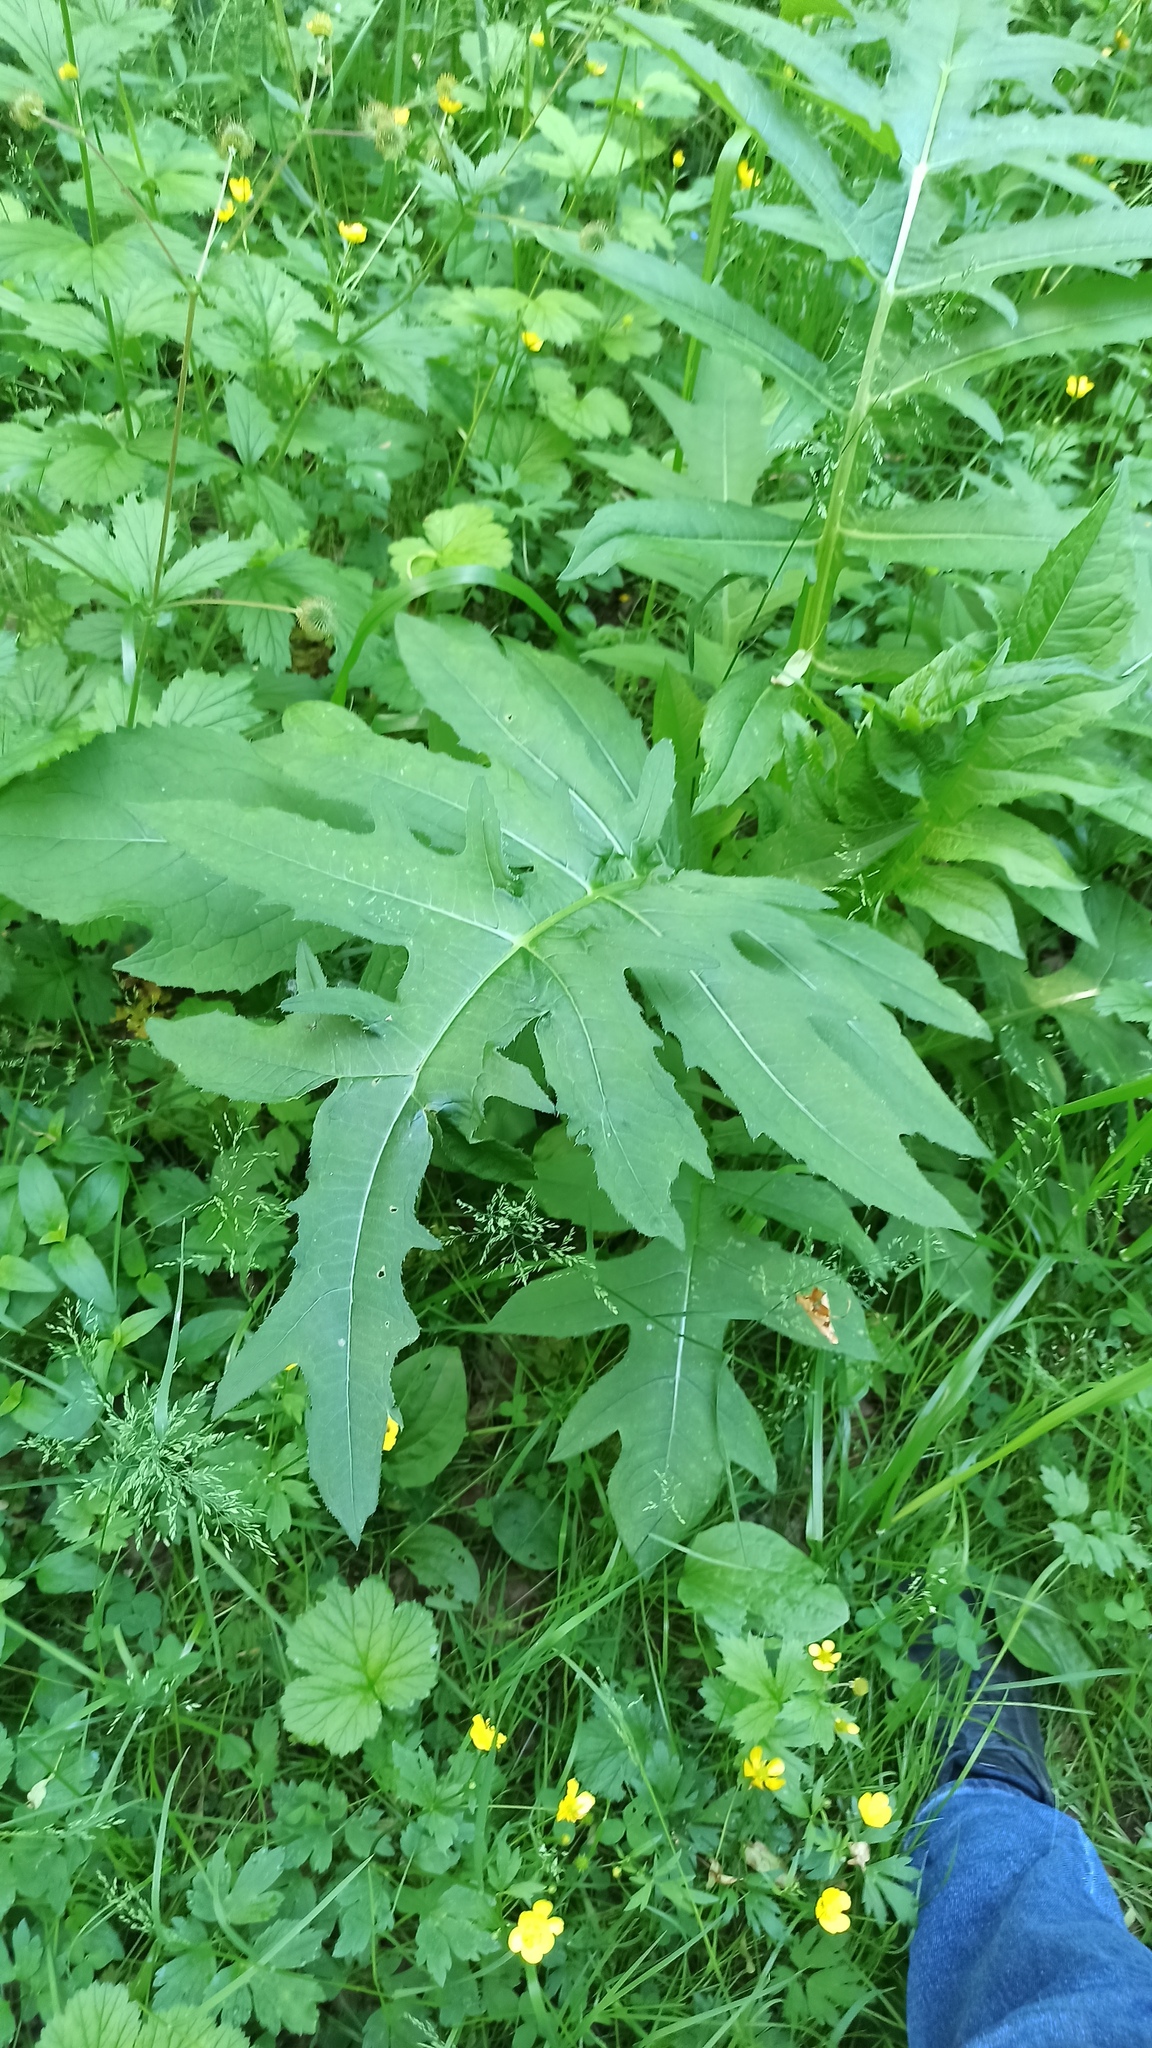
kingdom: Plantae
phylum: Tracheophyta
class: Magnoliopsida
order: Asterales
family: Asteraceae
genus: Cirsium
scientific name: Cirsium oleraceum
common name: Cabbage thistle
